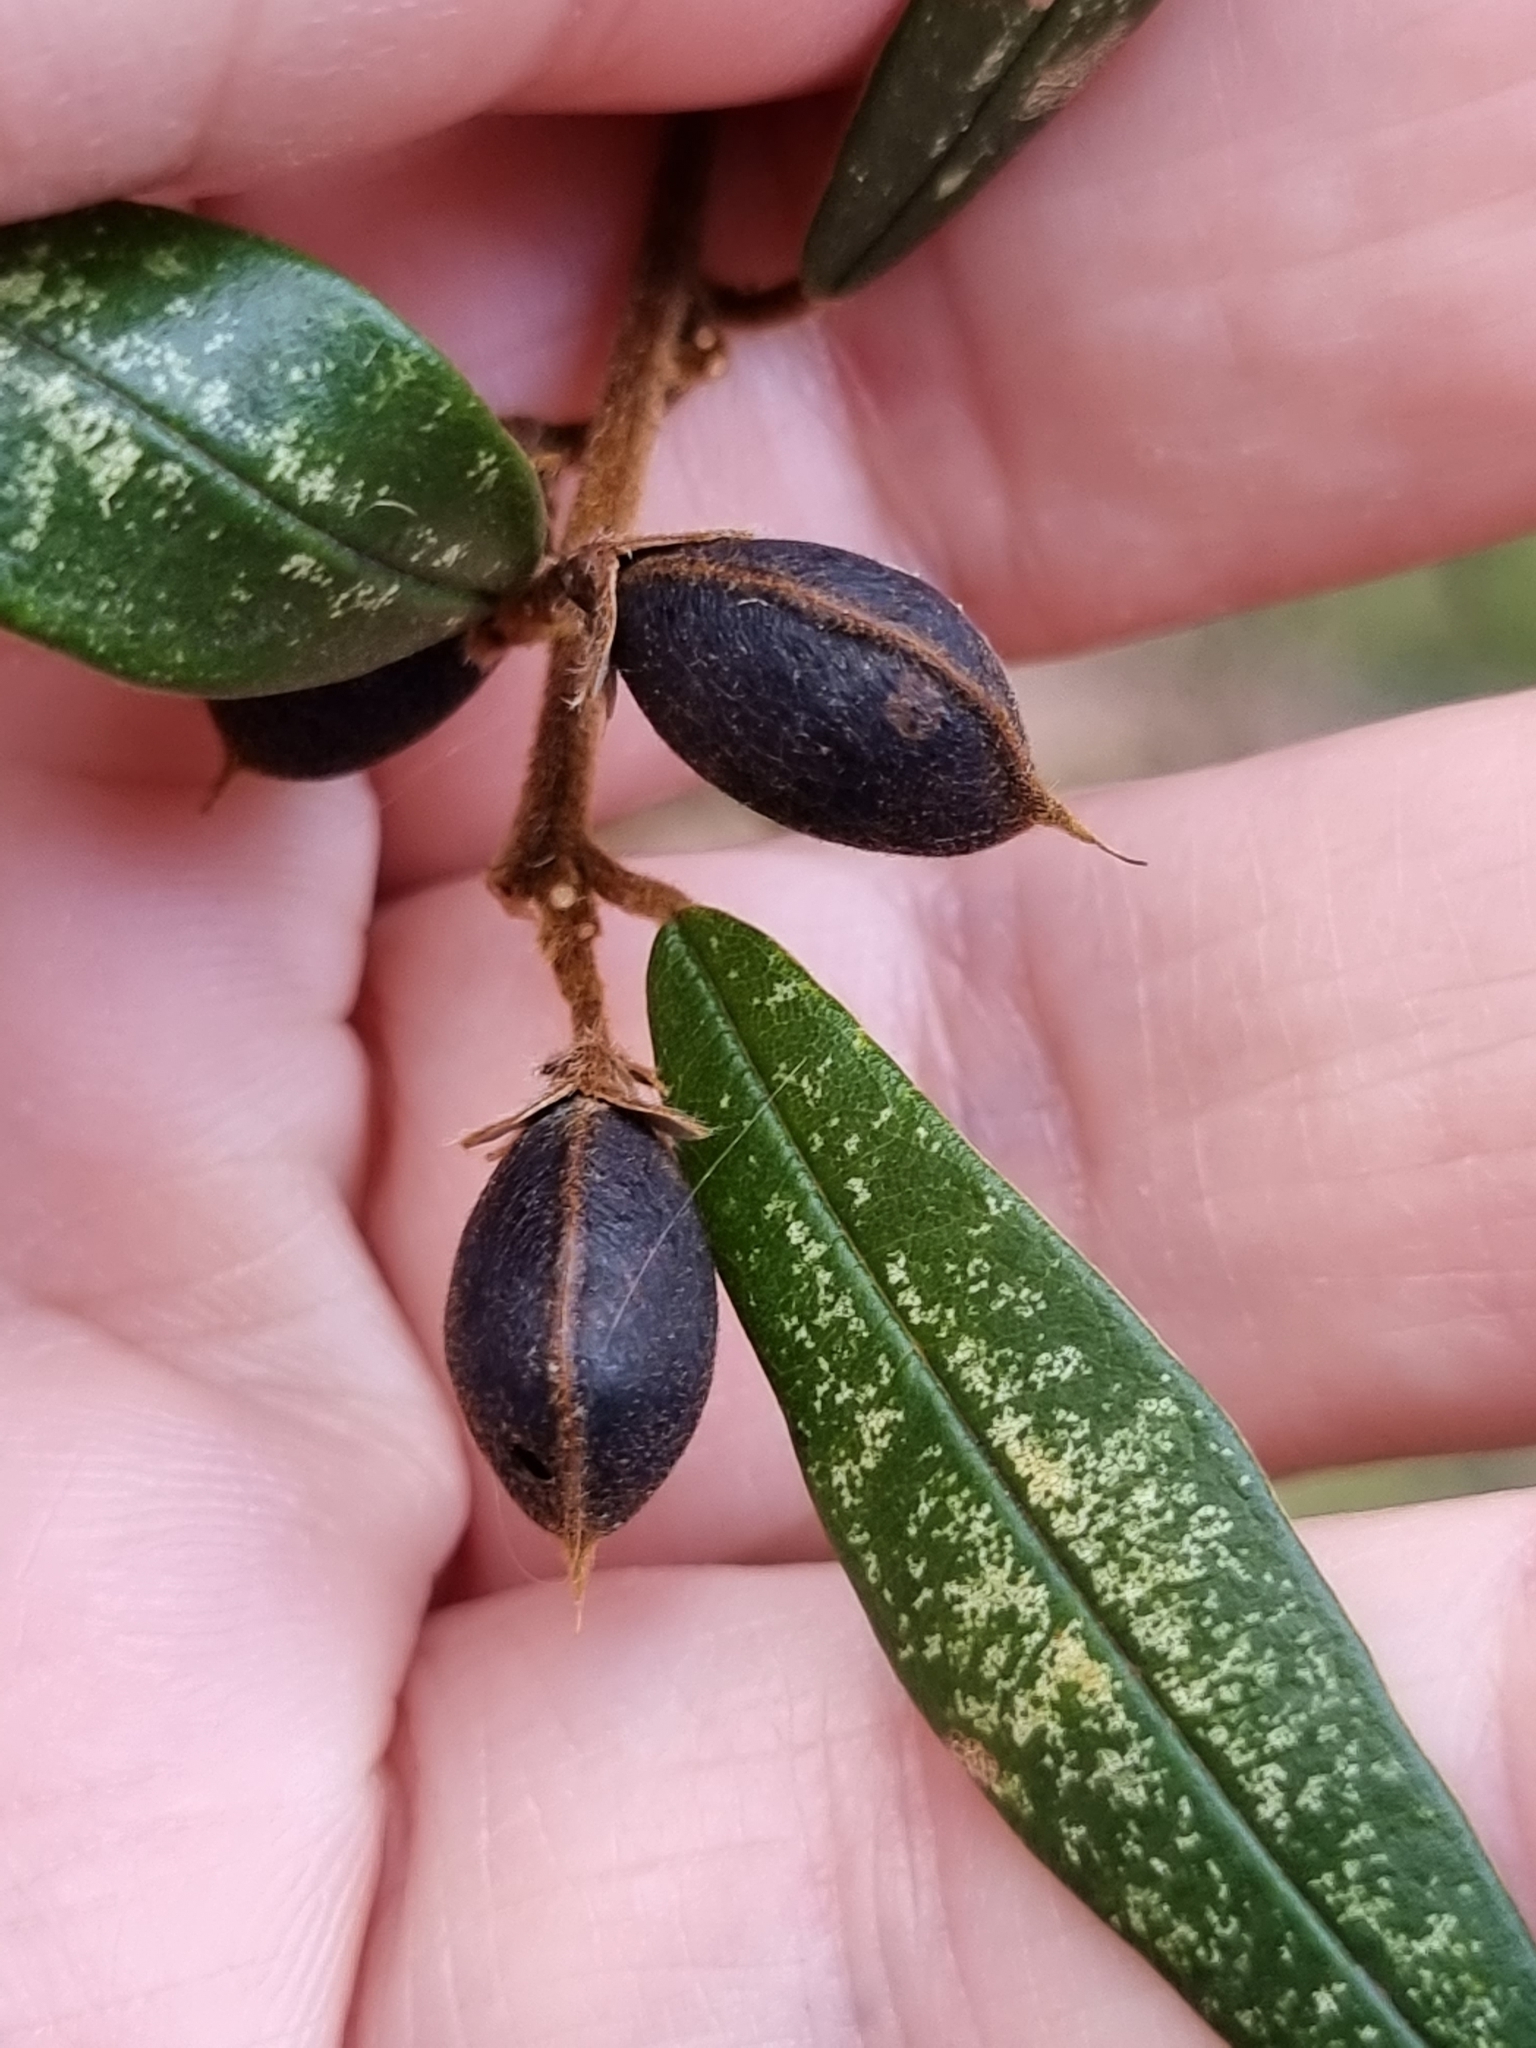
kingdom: Plantae
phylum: Tracheophyta
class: Magnoliopsida
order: Fabales
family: Fabaceae
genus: Hovea
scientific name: Hovea acutifolia
